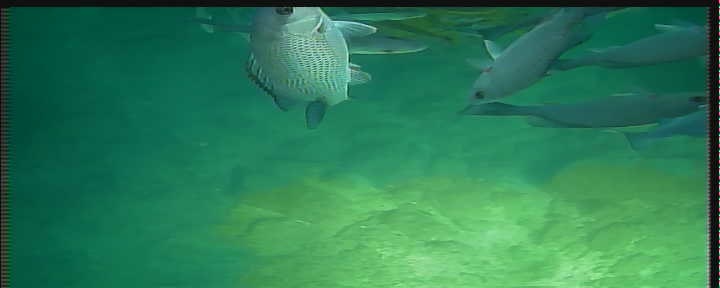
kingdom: Animalia
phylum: Chordata
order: Perciformes
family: Lutjanidae
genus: Lutjanus
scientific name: Lutjanus griseus
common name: Gray snapper
